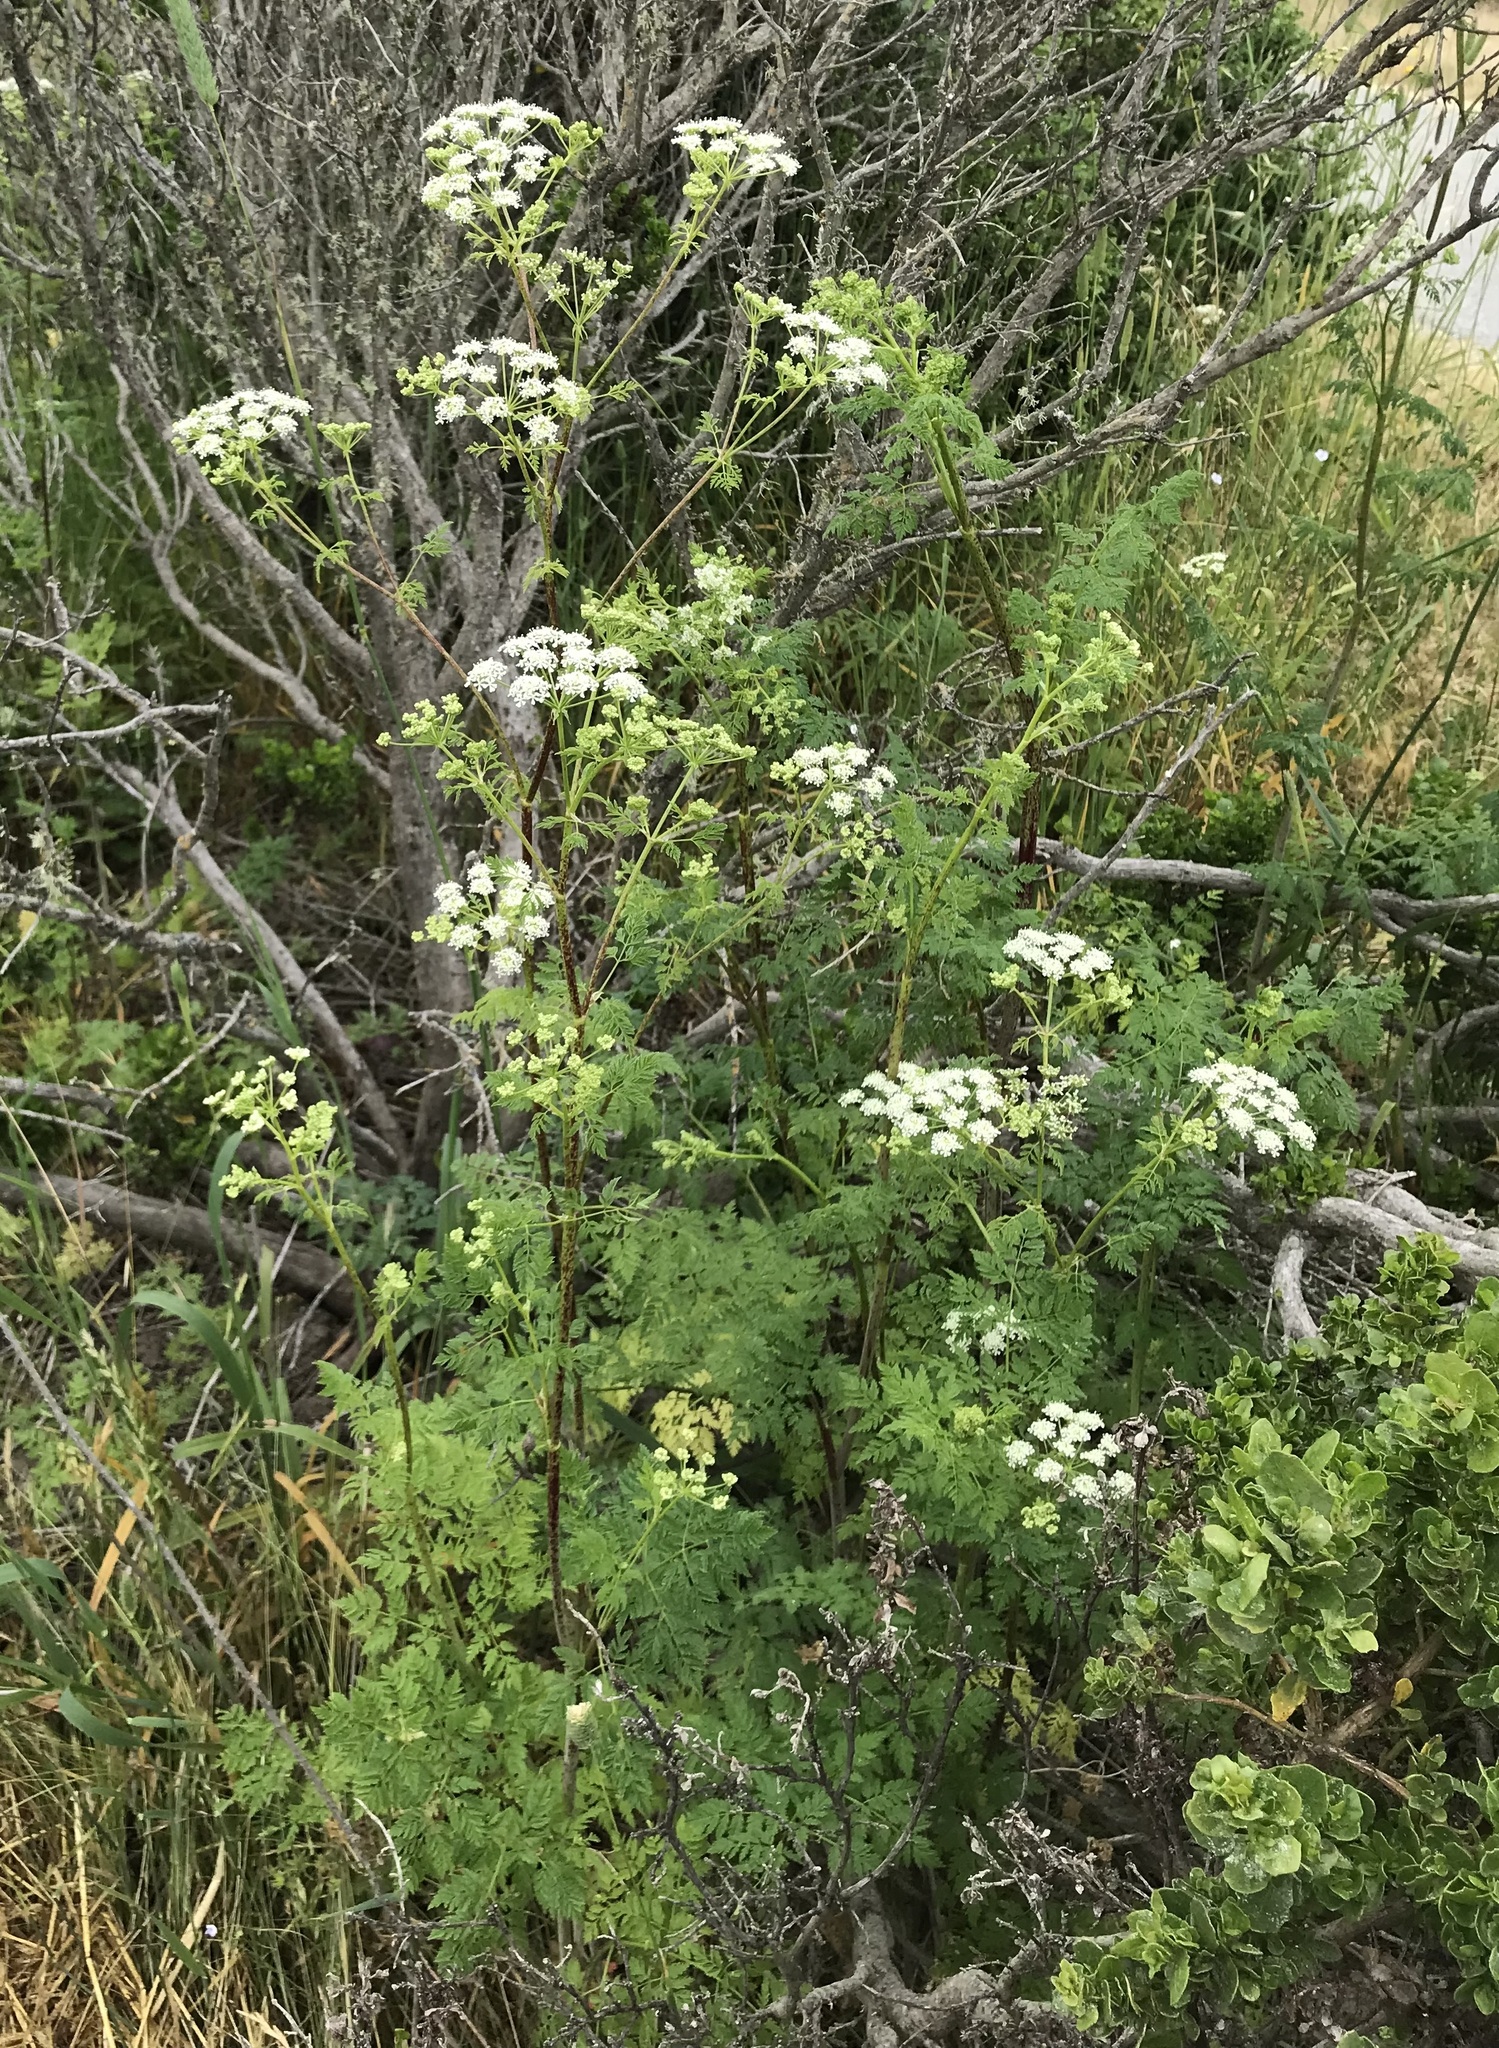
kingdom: Plantae
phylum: Tracheophyta
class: Magnoliopsida
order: Apiales
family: Apiaceae
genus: Conium
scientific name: Conium maculatum
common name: Hemlock
